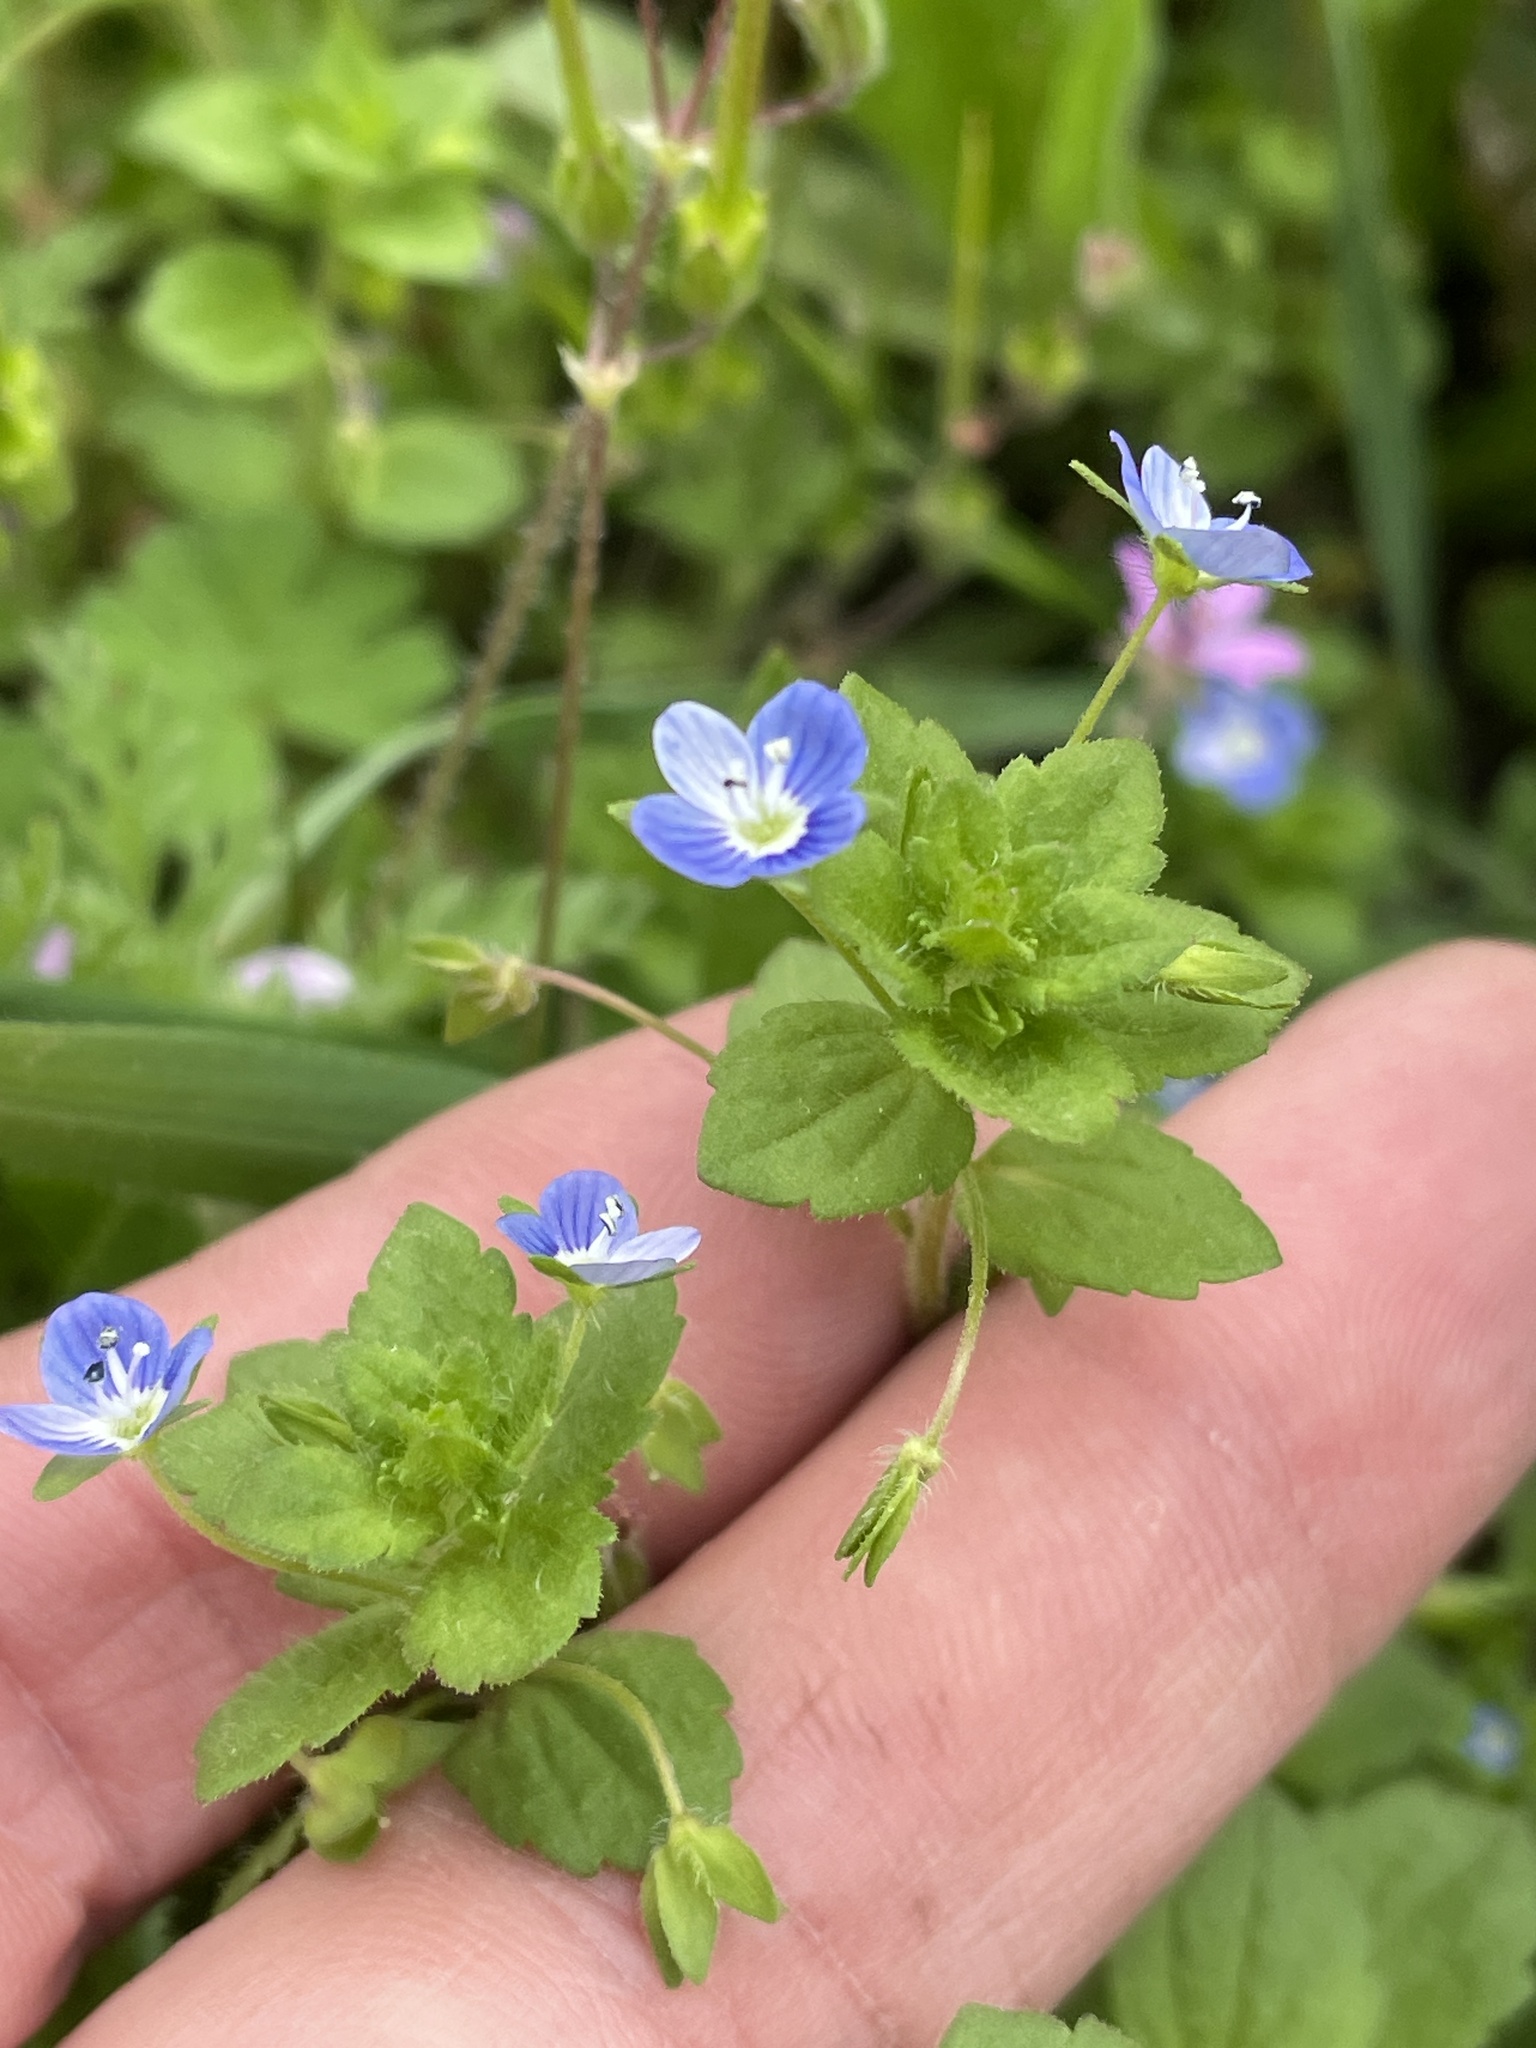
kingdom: Plantae
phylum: Tracheophyta
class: Magnoliopsida
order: Lamiales
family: Plantaginaceae
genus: Veronica
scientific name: Veronica persica
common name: Common field-speedwell
